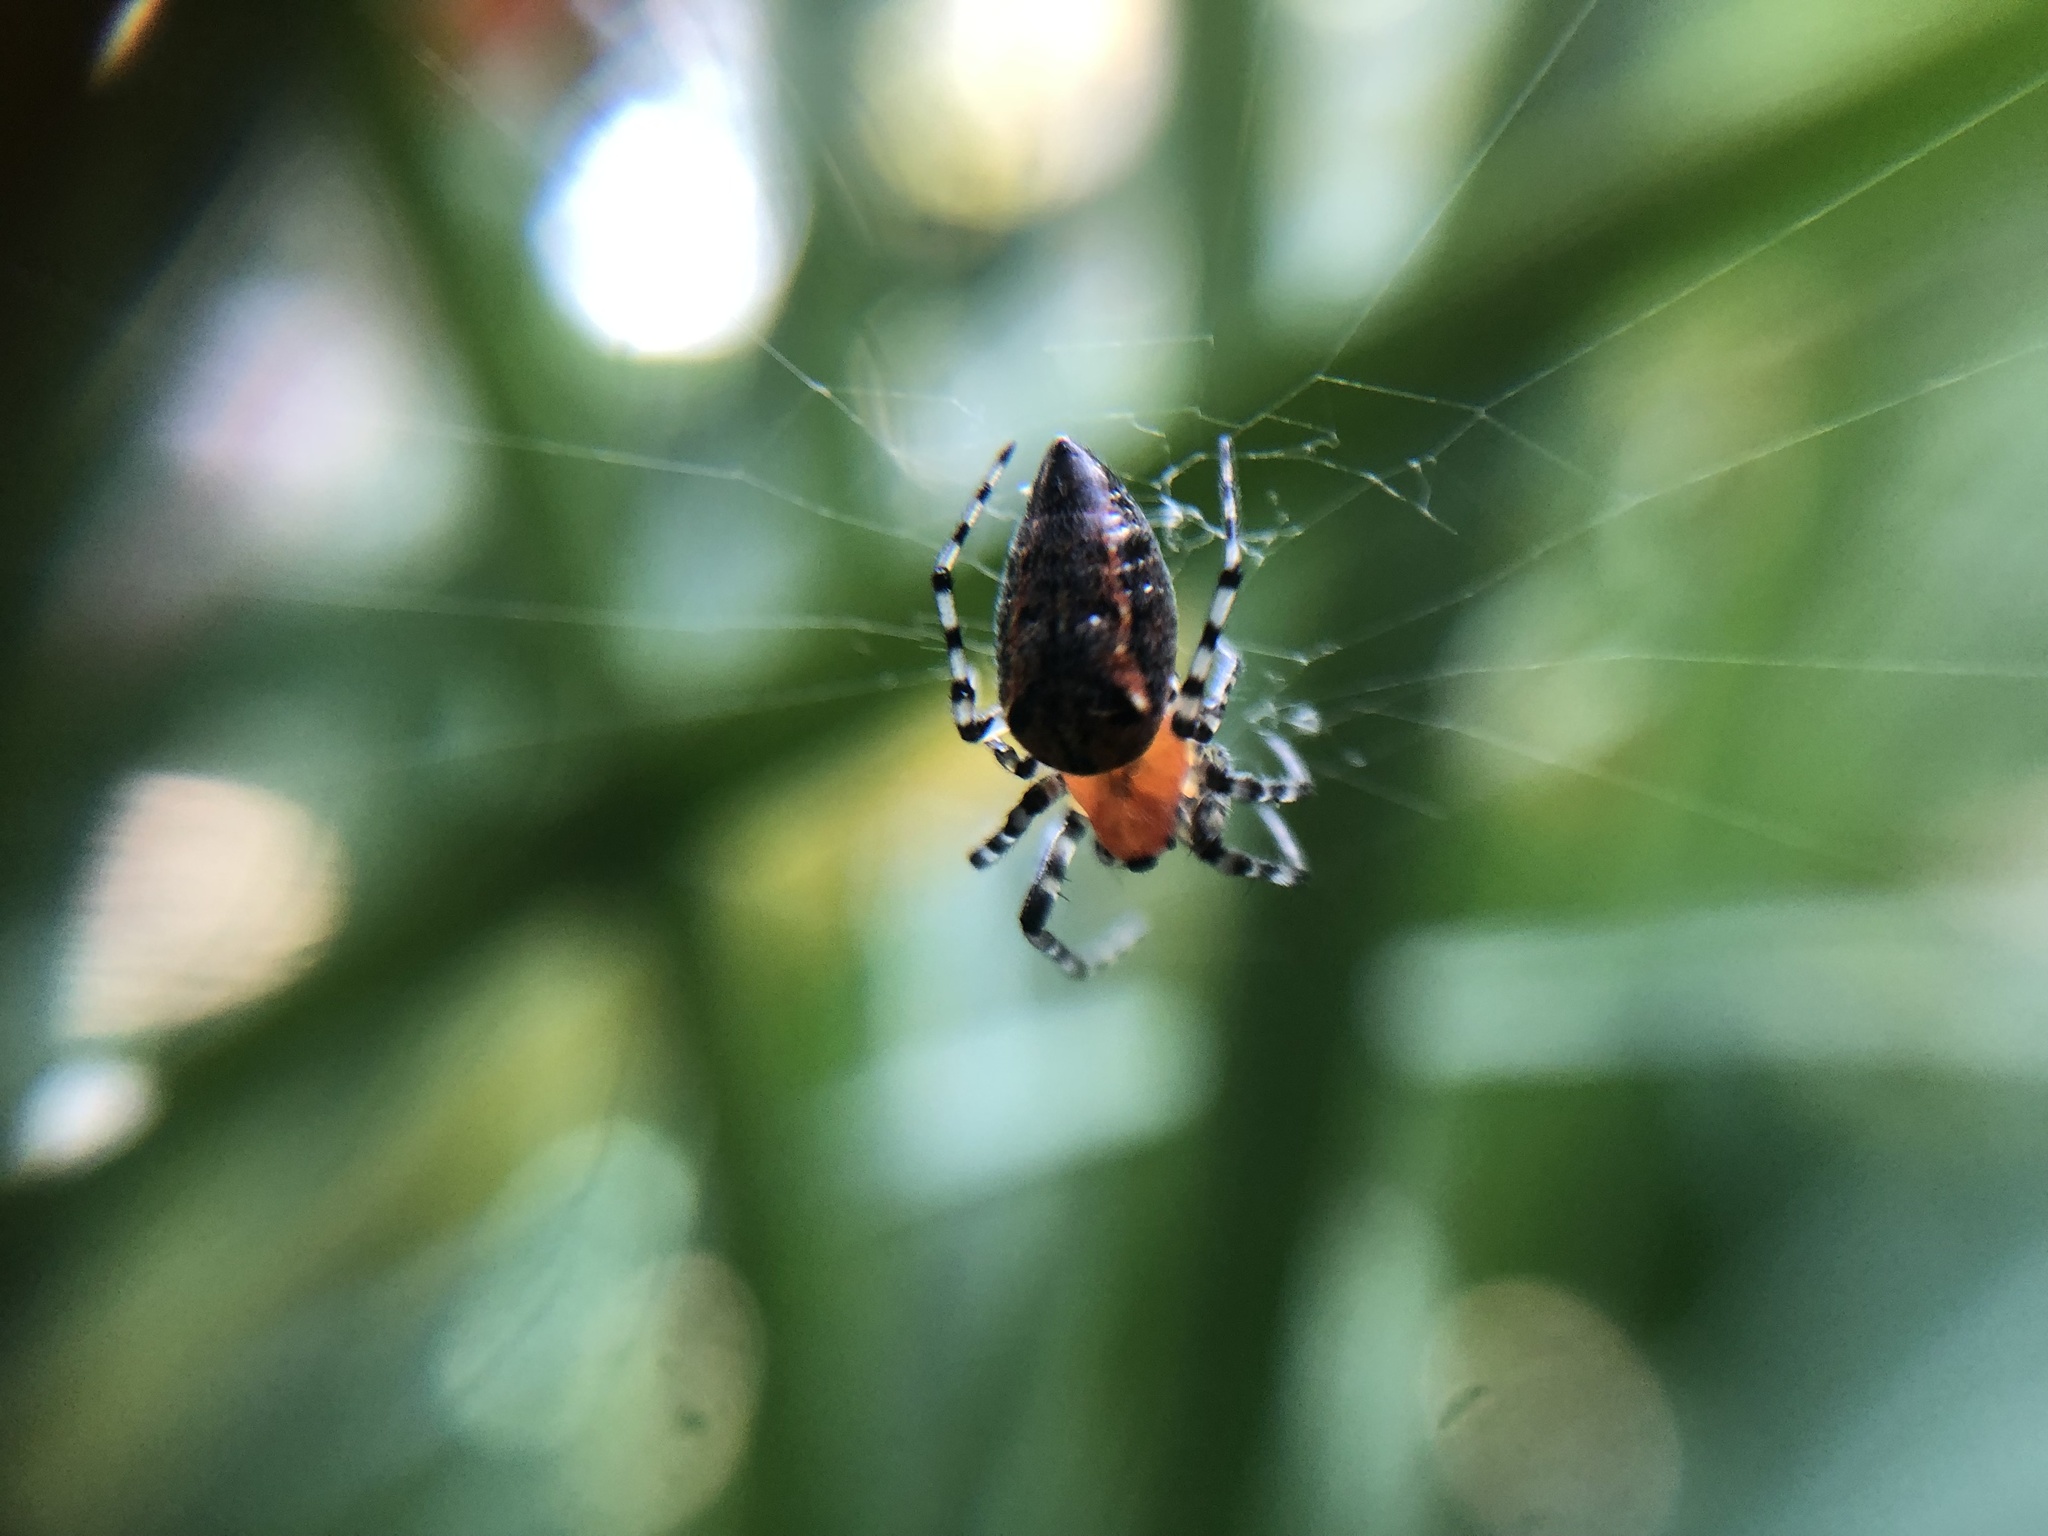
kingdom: Animalia
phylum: Arthropoda
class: Arachnida
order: Araneae
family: Araneidae
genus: Alpaida
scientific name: Alpaida gallardoi
